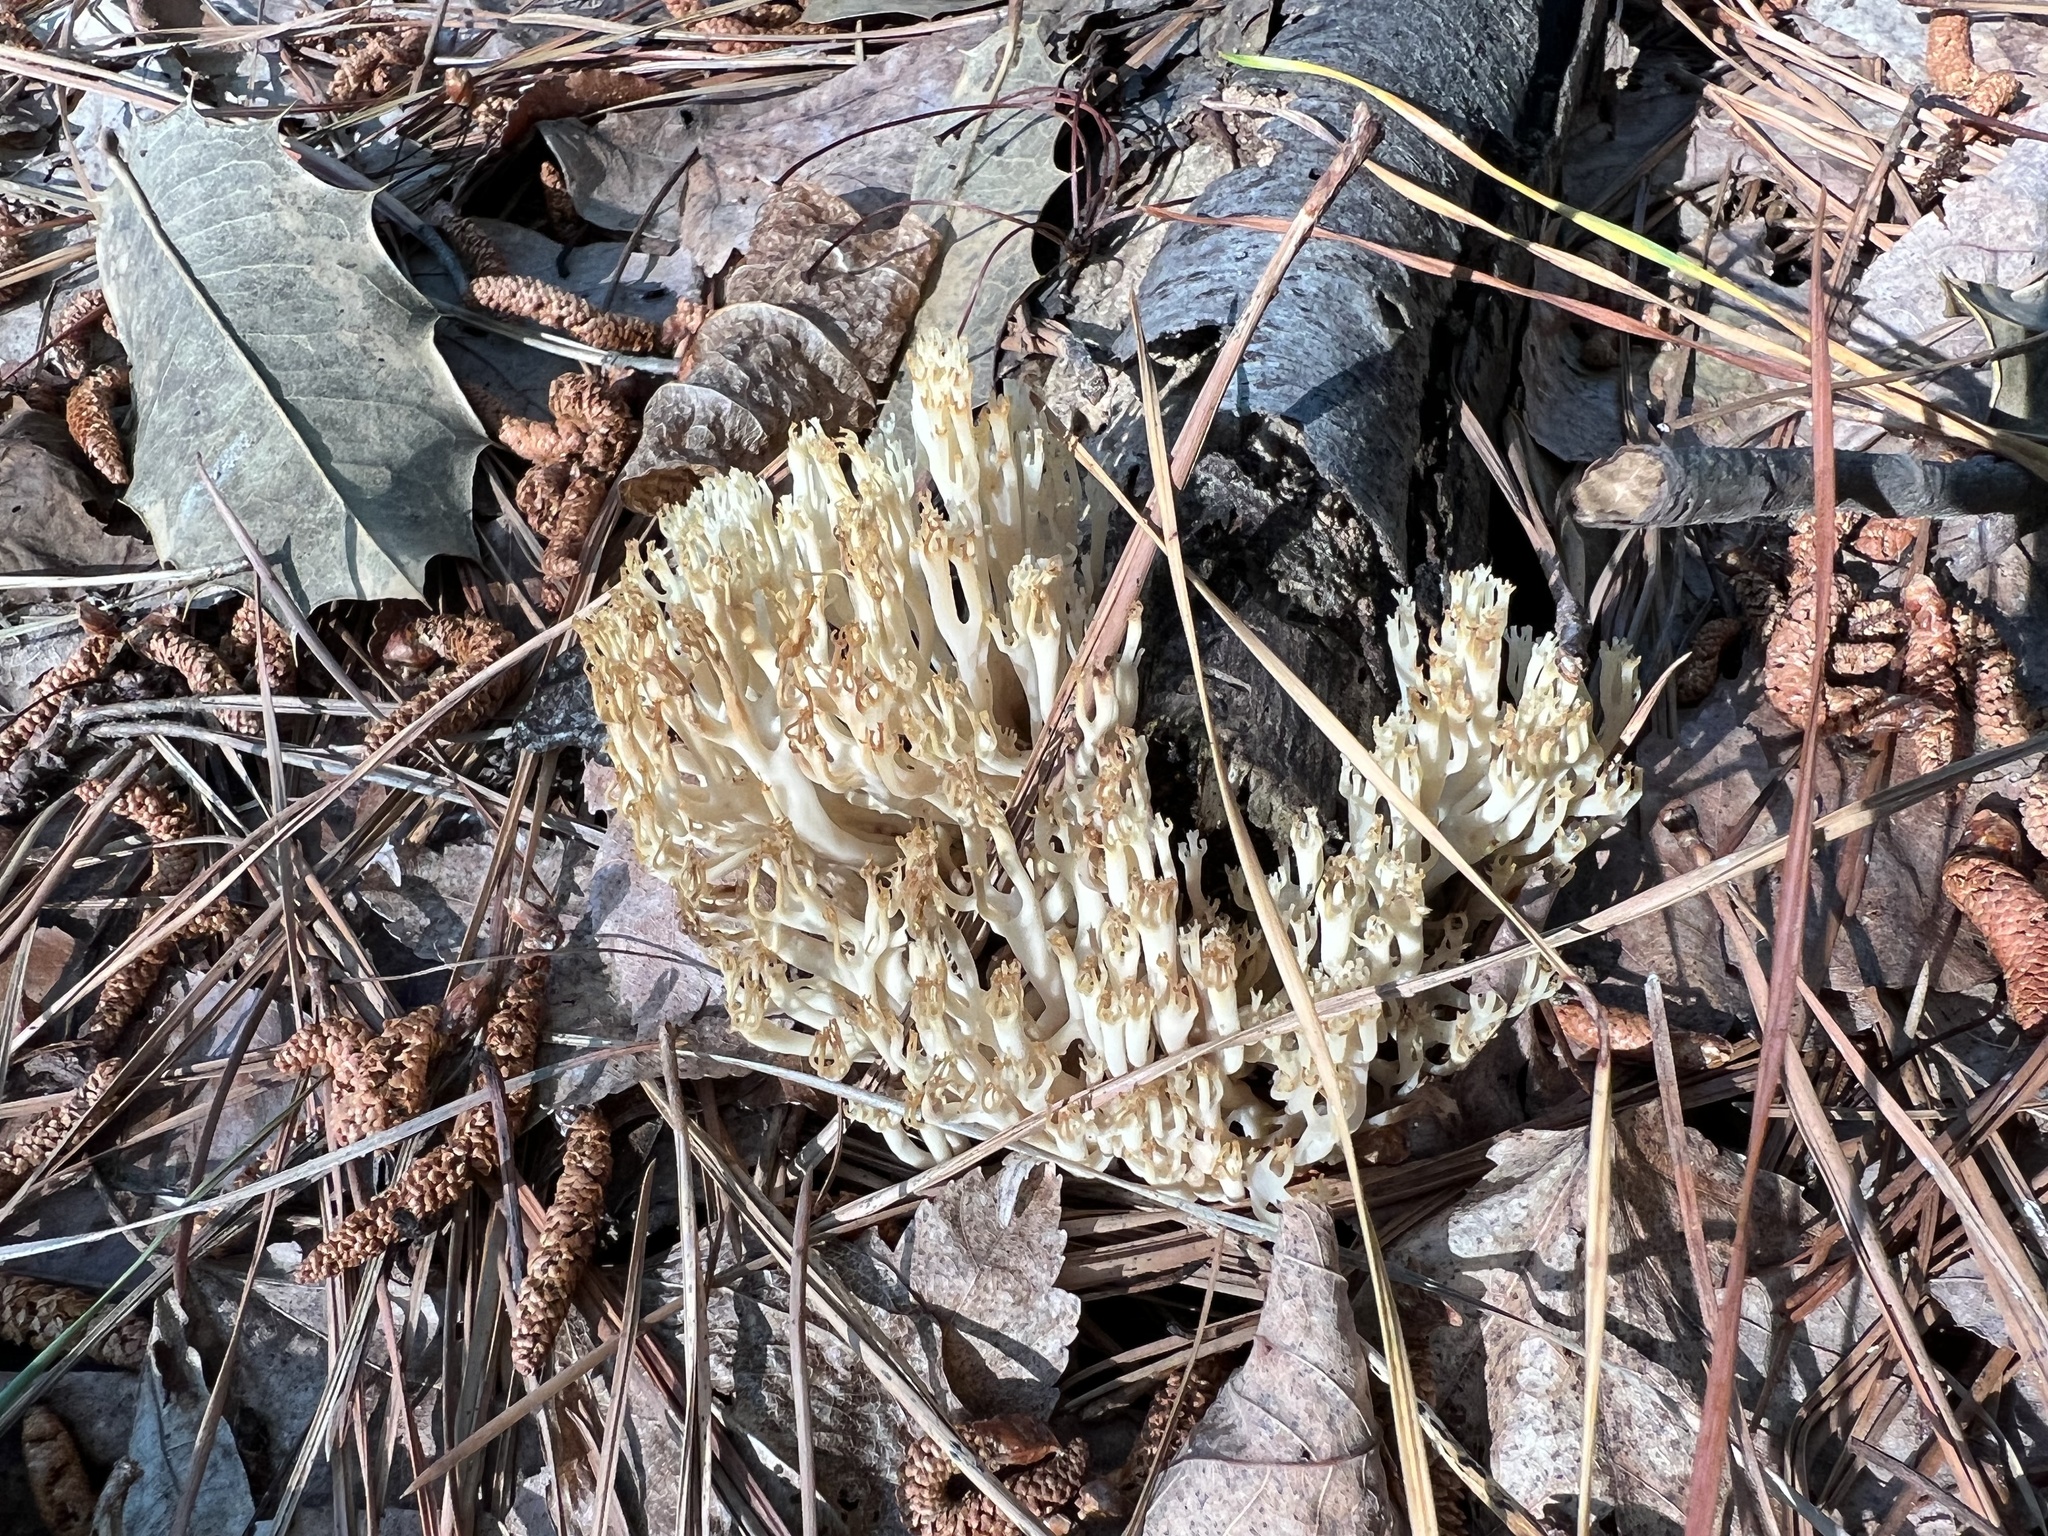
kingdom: Fungi
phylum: Basidiomycota
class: Agaricomycetes
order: Russulales
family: Auriscalpiaceae
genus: Artomyces
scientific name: Artomyces pyxidatus
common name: Crown-tipped coral fungus
